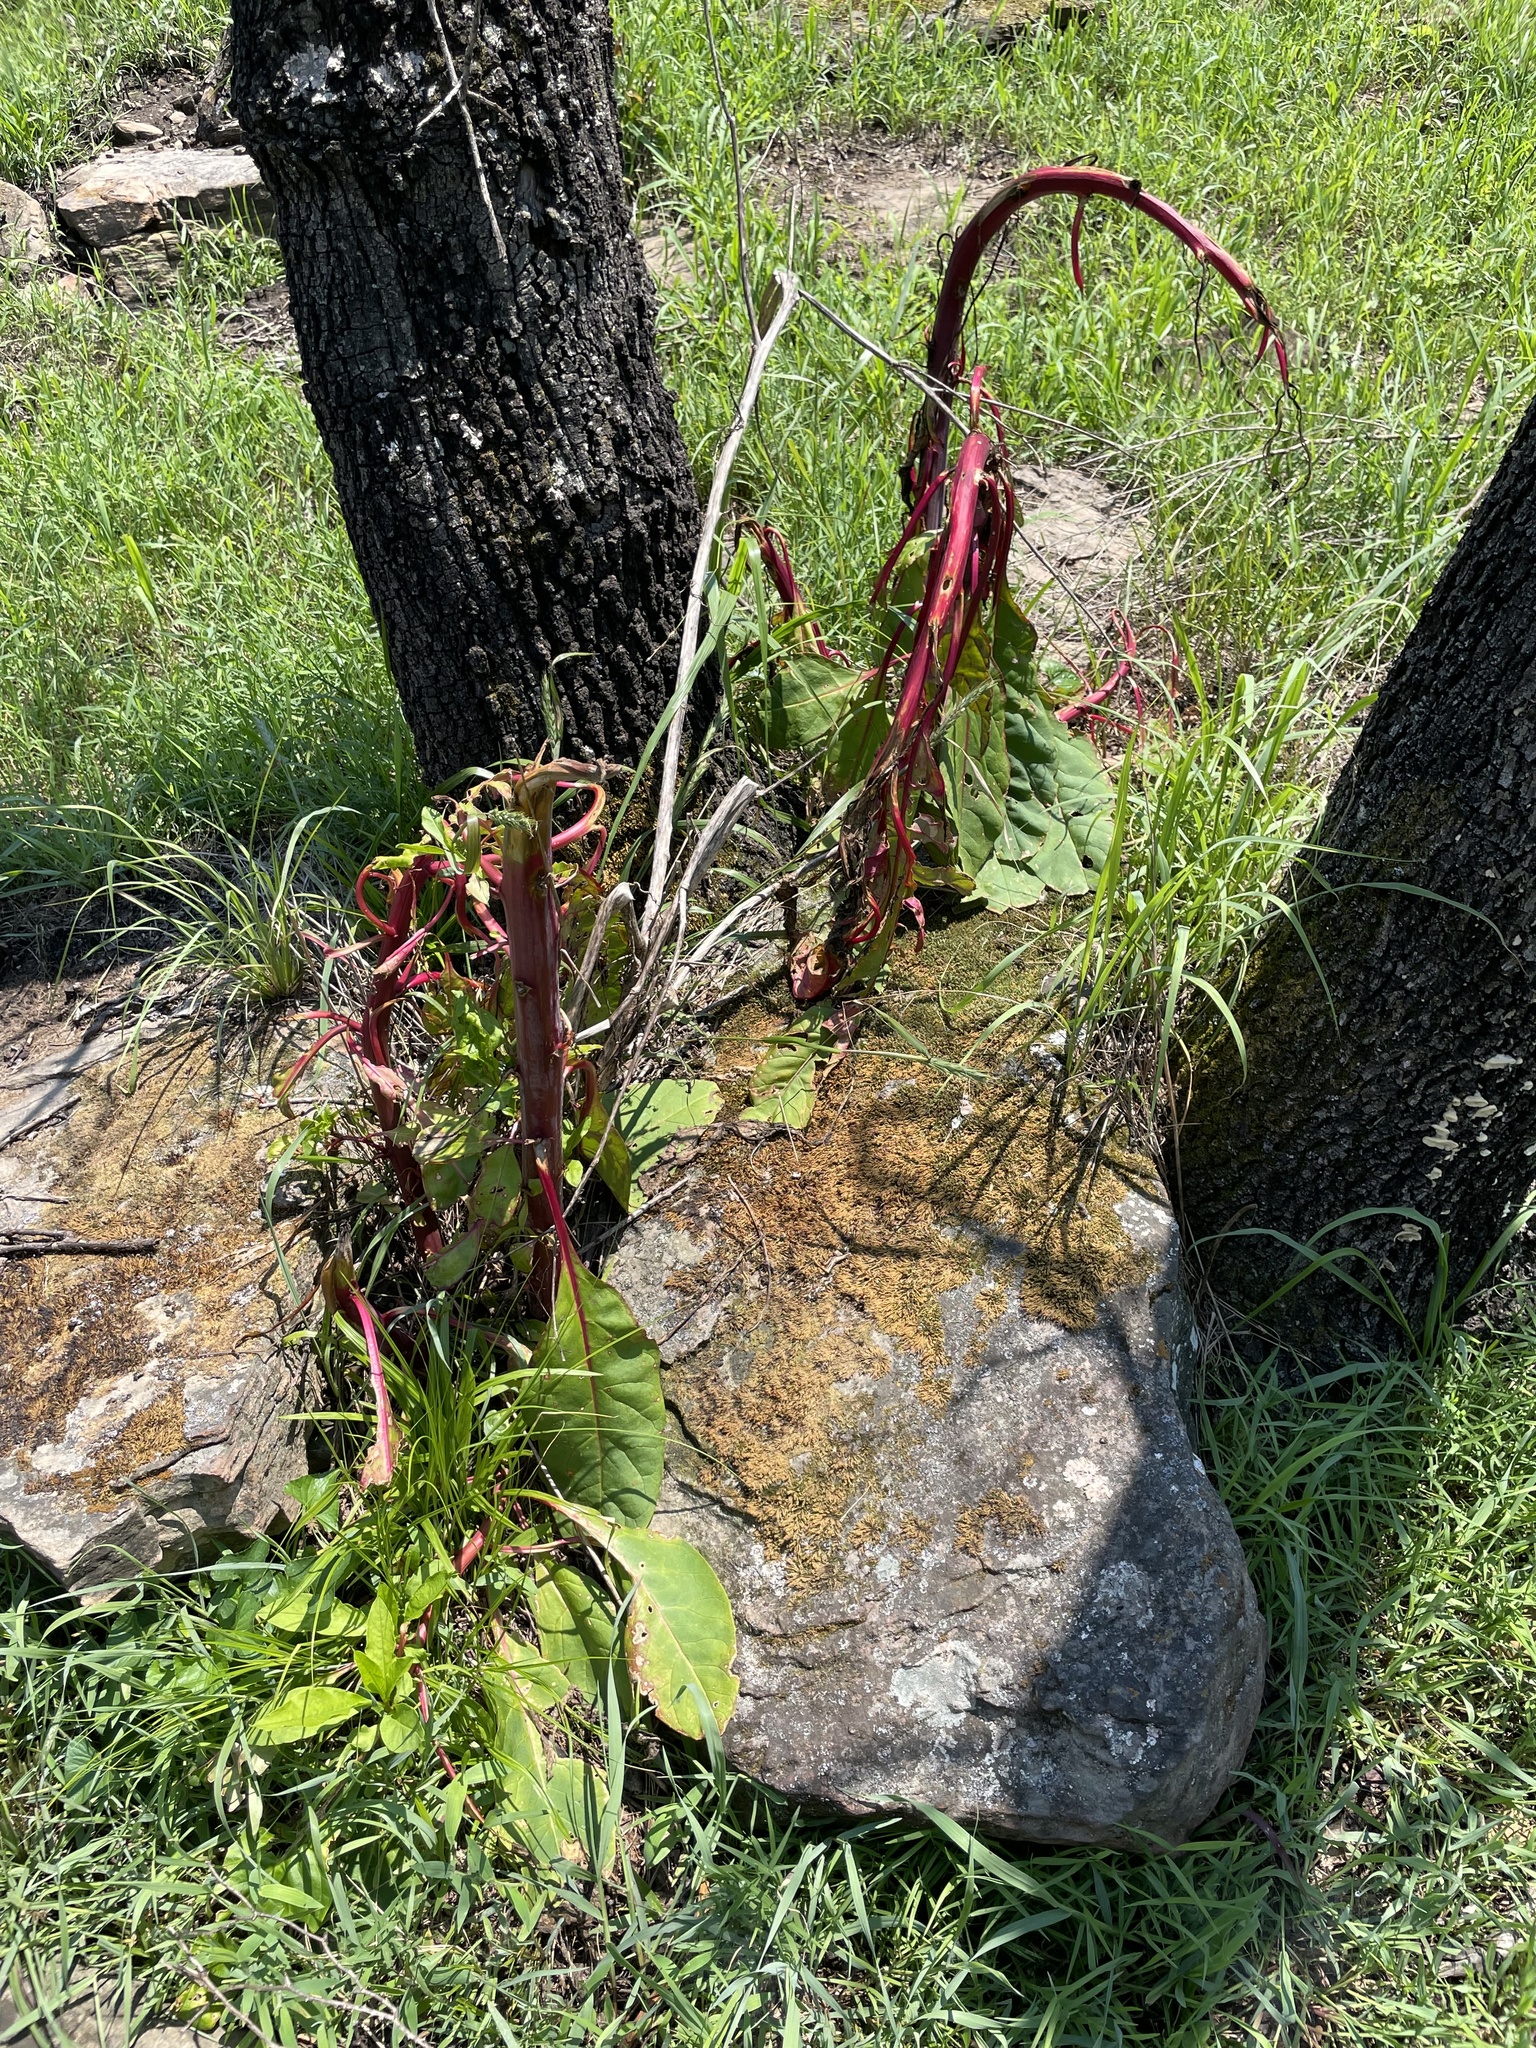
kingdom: Plantae
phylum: Tracheophyta
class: Magnoliopsida
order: Caryophyllales
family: Phytolaccaceae
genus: Phytolacca
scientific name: Phytolacca americana
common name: American pokeweed
